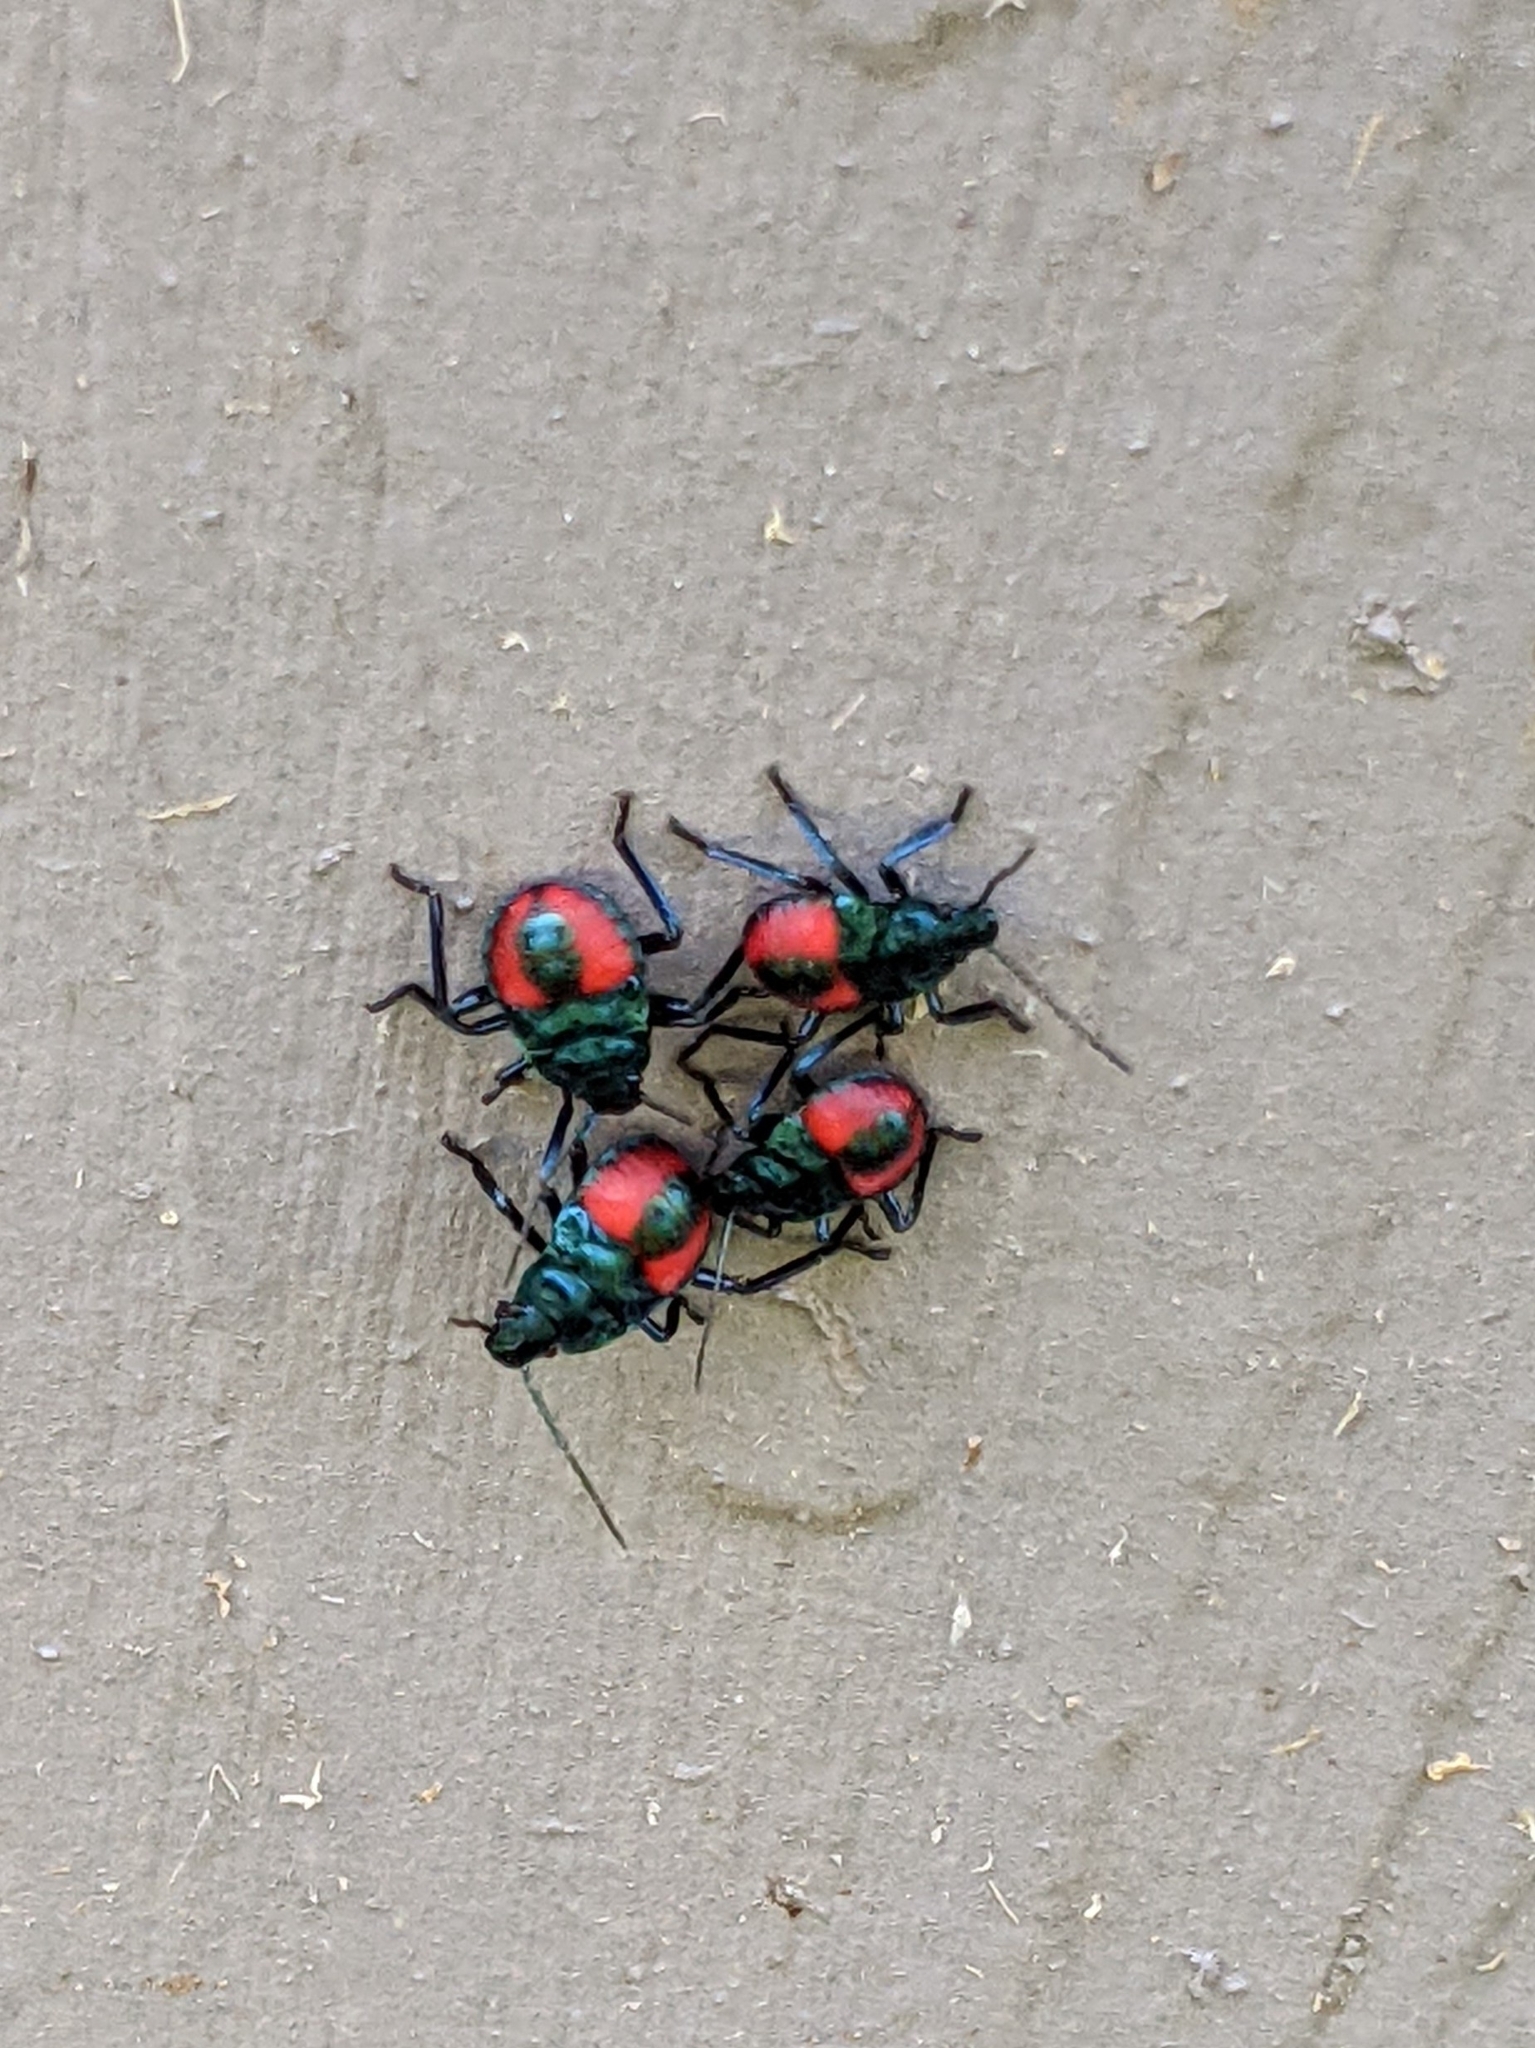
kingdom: Animalia
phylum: Arthropoda
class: Insecta
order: Hemiptera
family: Pentatomidae
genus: Euthyrhynchus
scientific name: Euthyrhynchus floridanus
